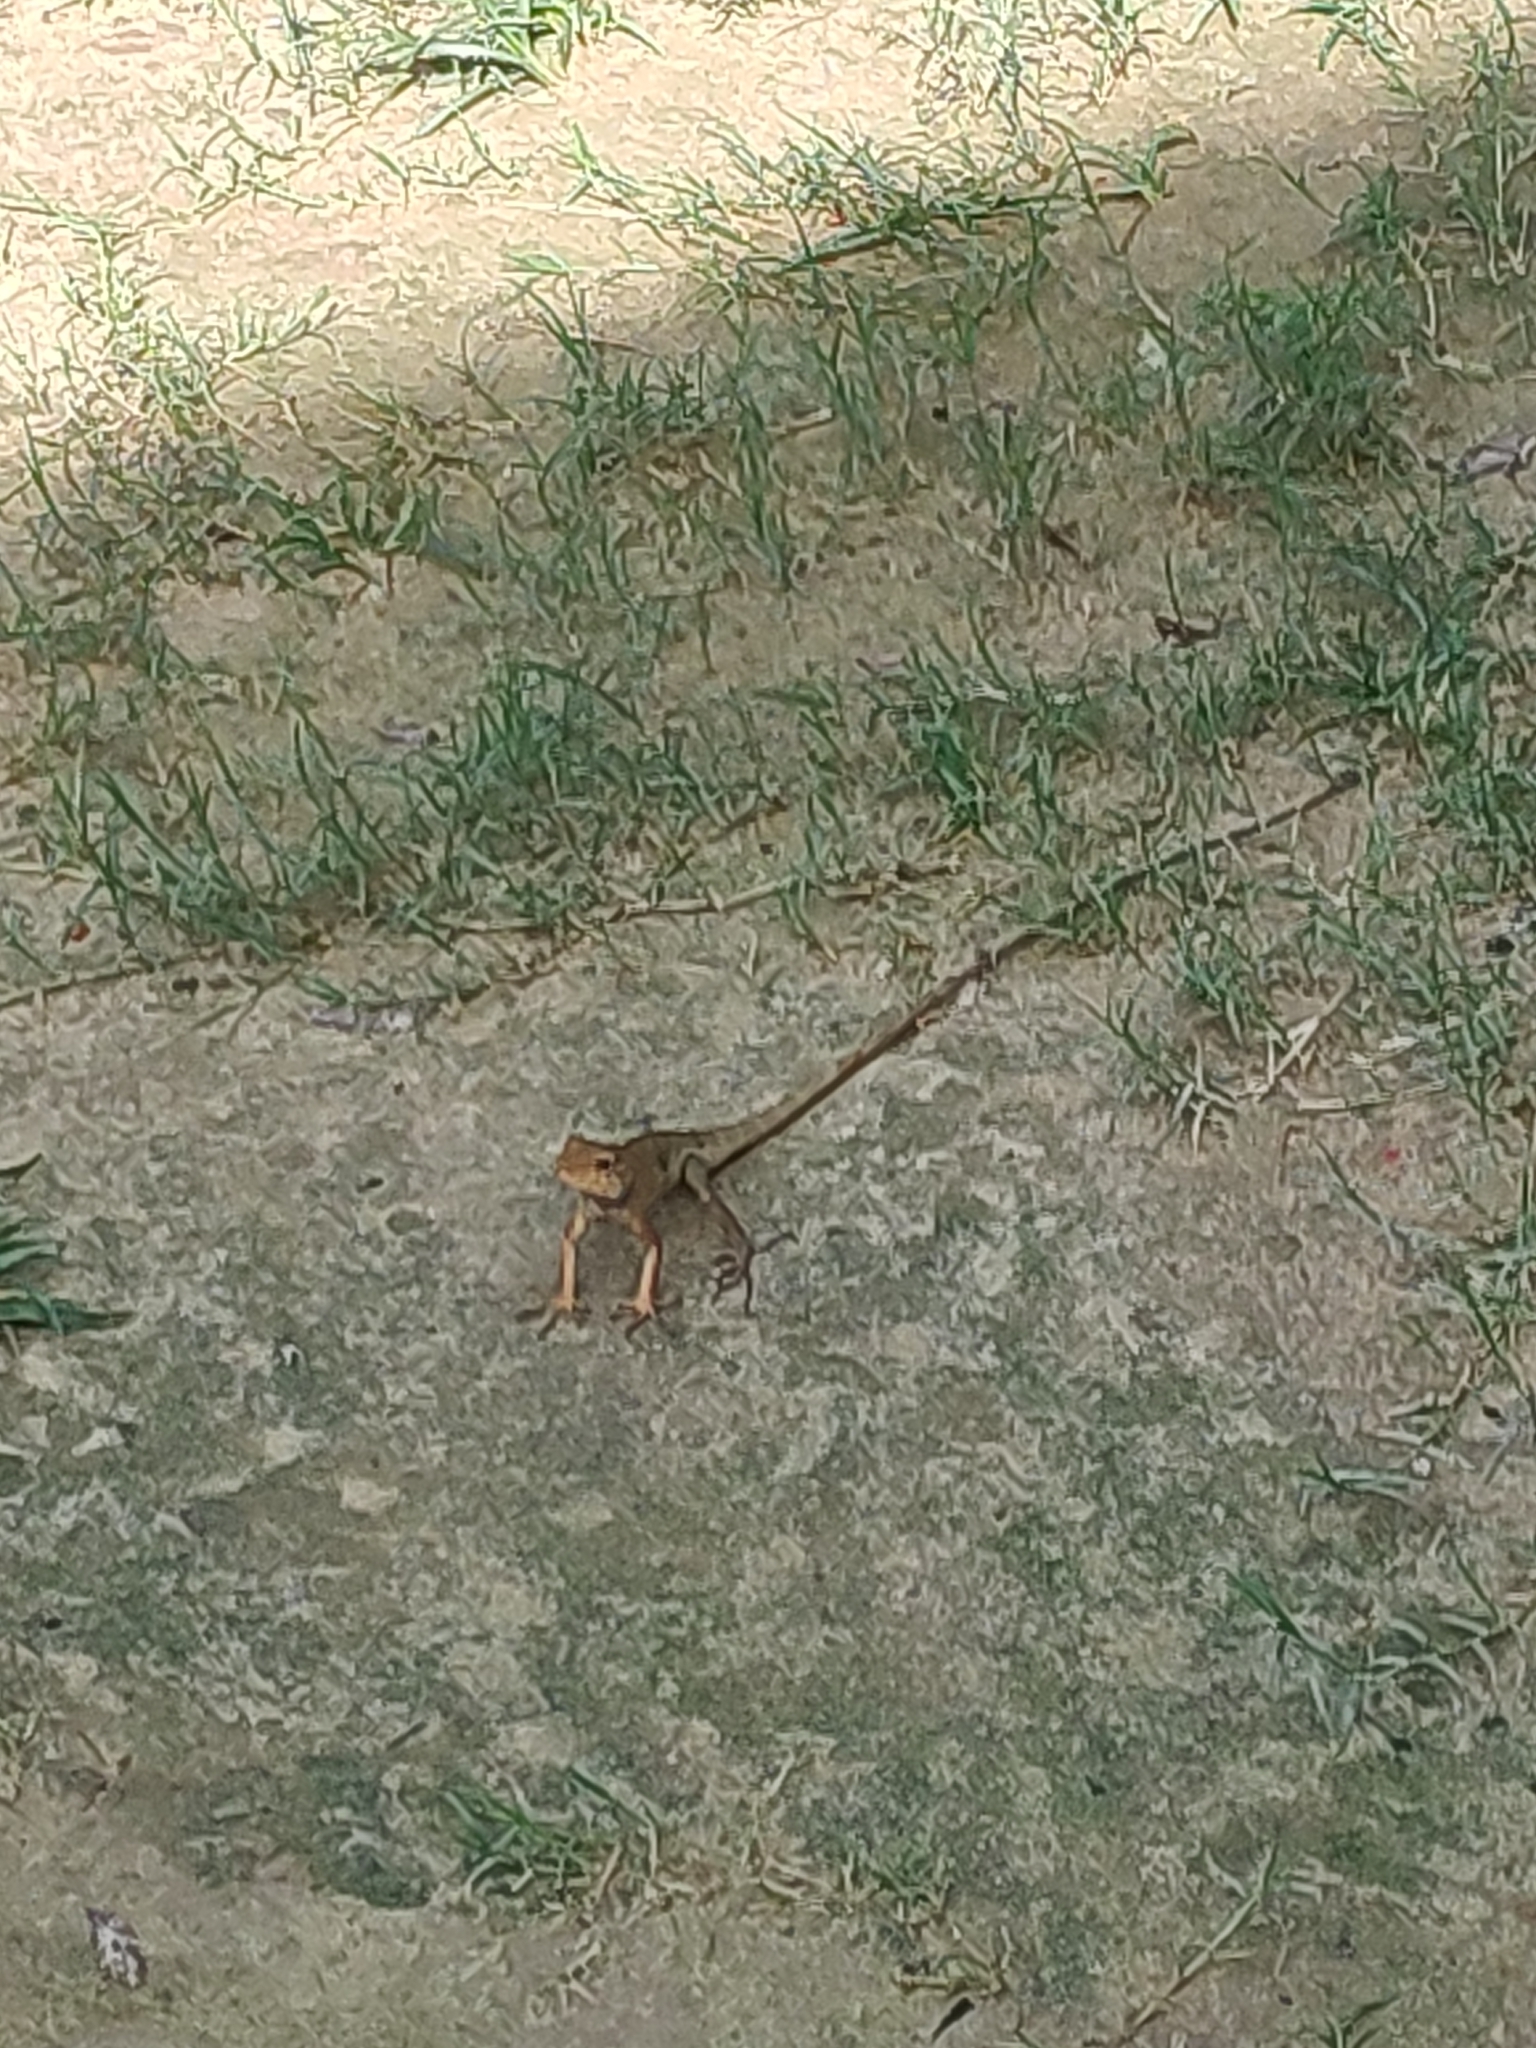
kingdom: Animalia
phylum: Chordata
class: Squamata
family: Agamidae
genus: Calotes
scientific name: Calotes versicolor
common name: Oriental garden lizard
